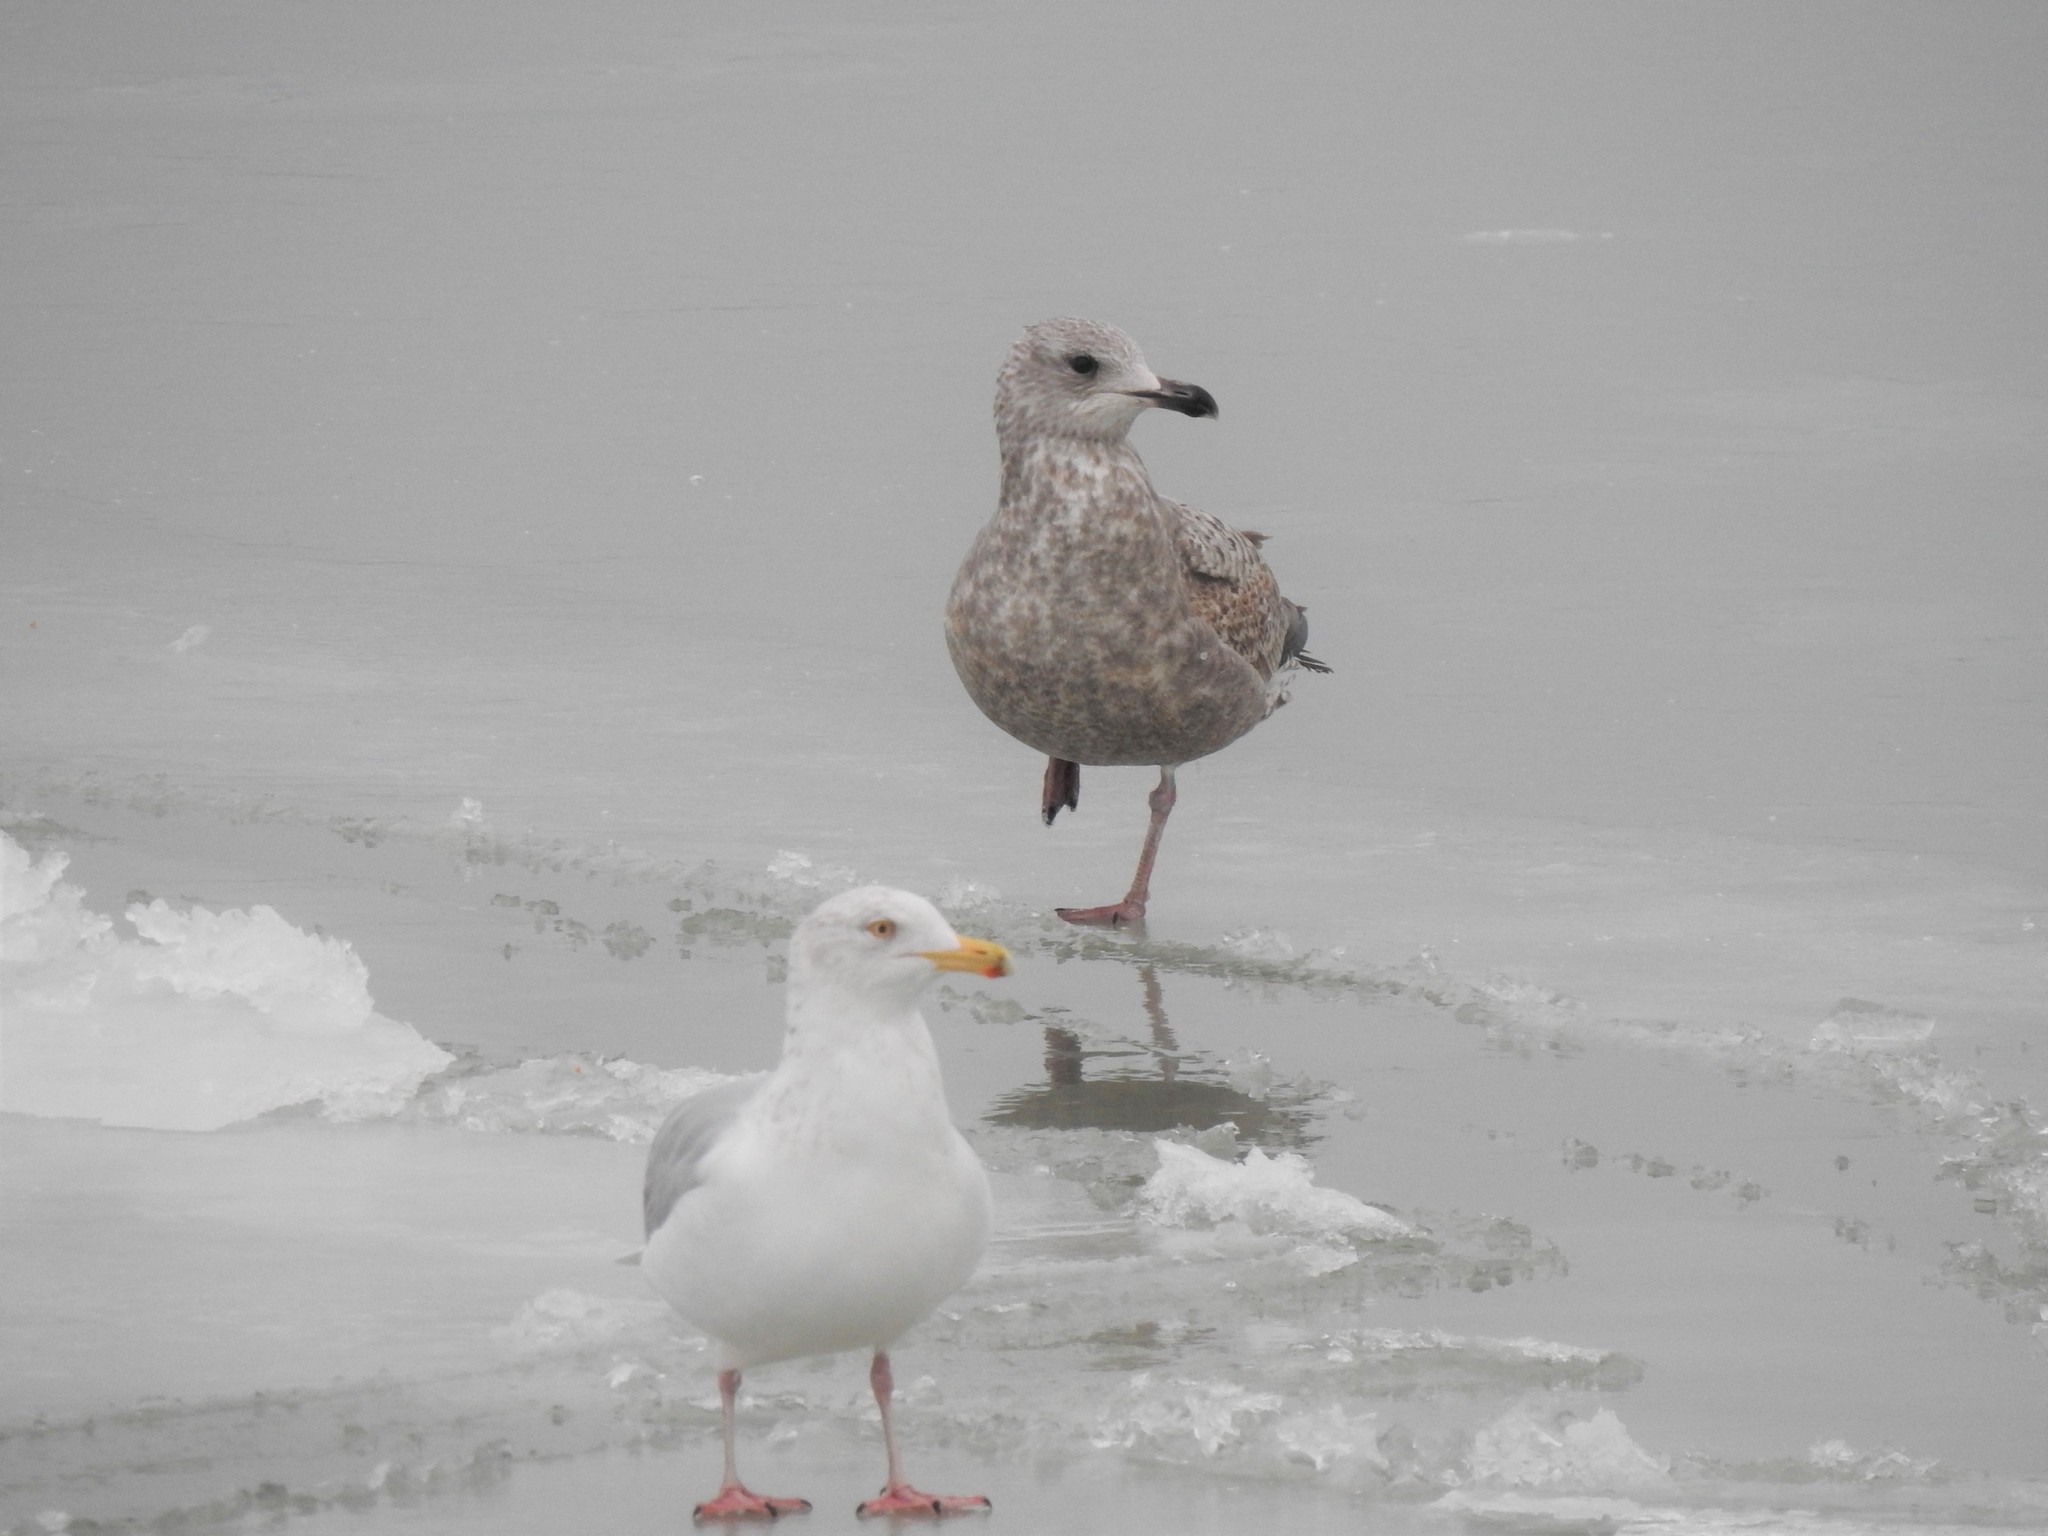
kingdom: Animalia
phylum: Chordata
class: Aves
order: Charadriiformes
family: Laridae
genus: Larus
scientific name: Larus argentatus
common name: Herring gull
